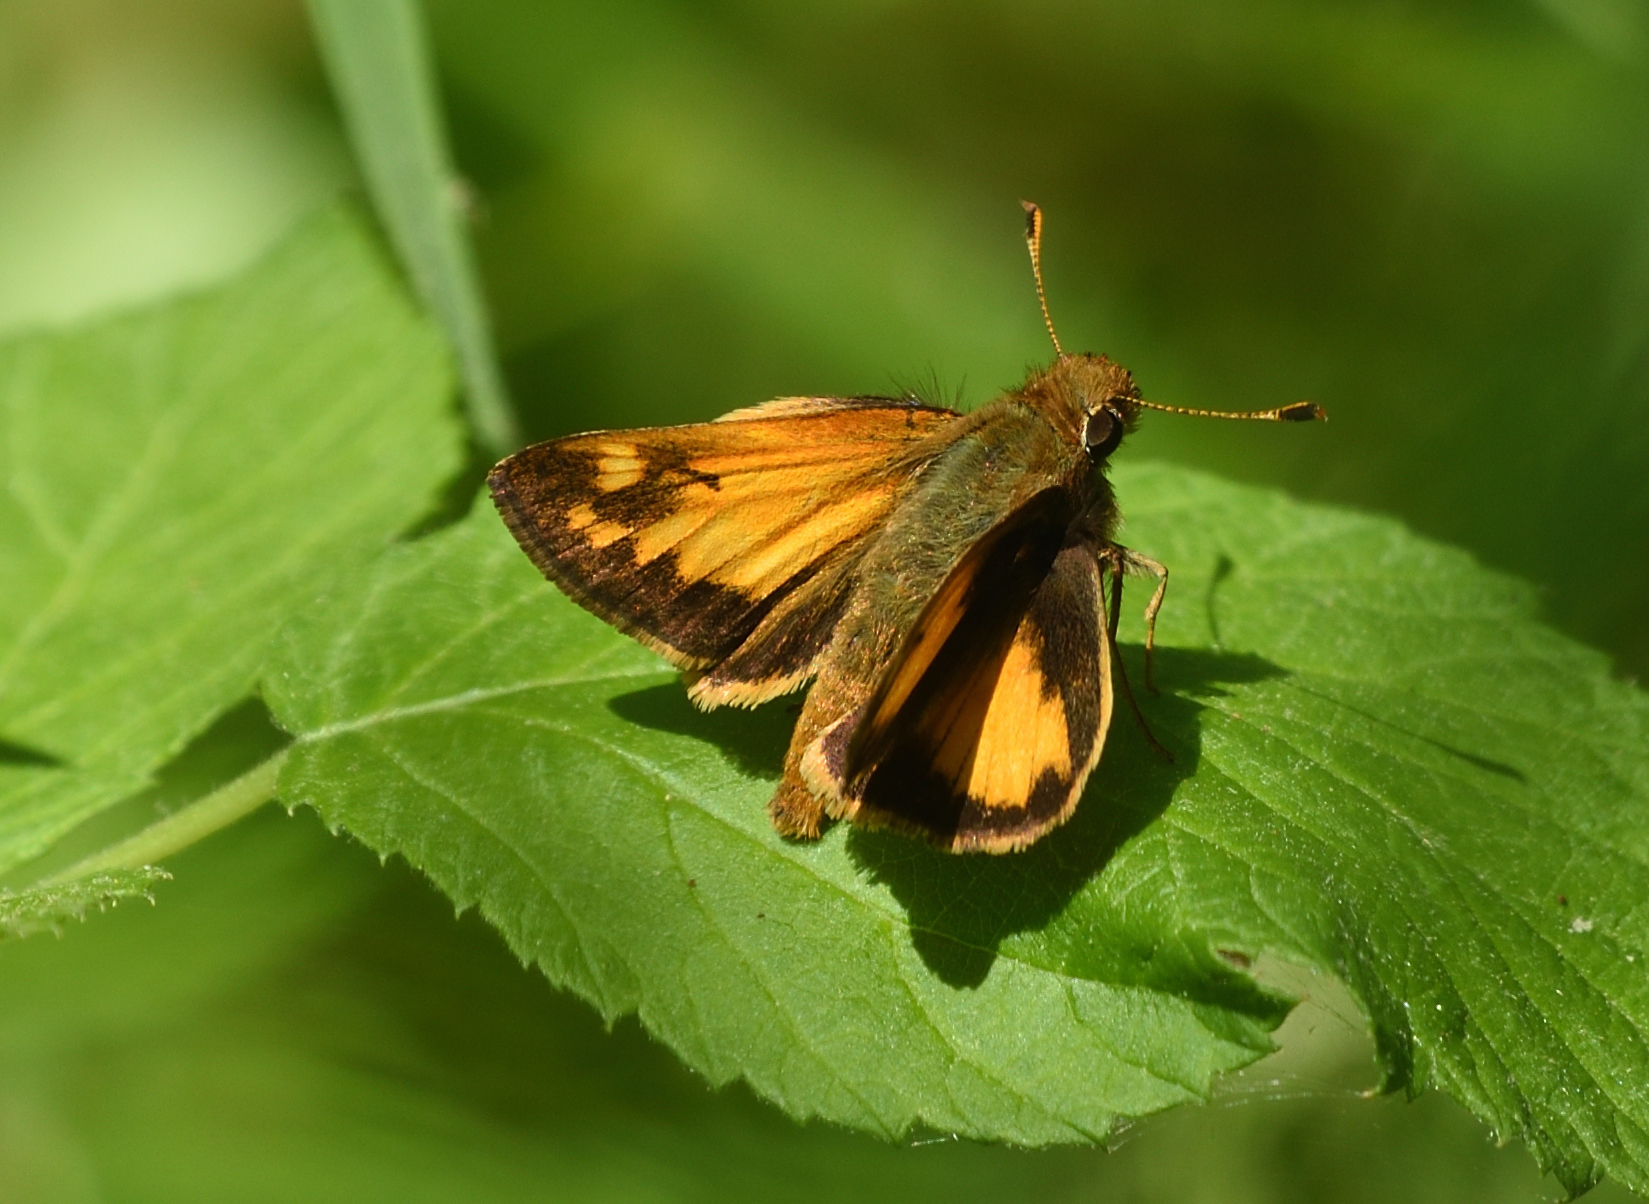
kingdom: Animalia
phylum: Arthropoda
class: Insecta
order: Lepidoptera
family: Hesperiidae
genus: Lon
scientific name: Lon zabulon
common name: Zabulon skipper
